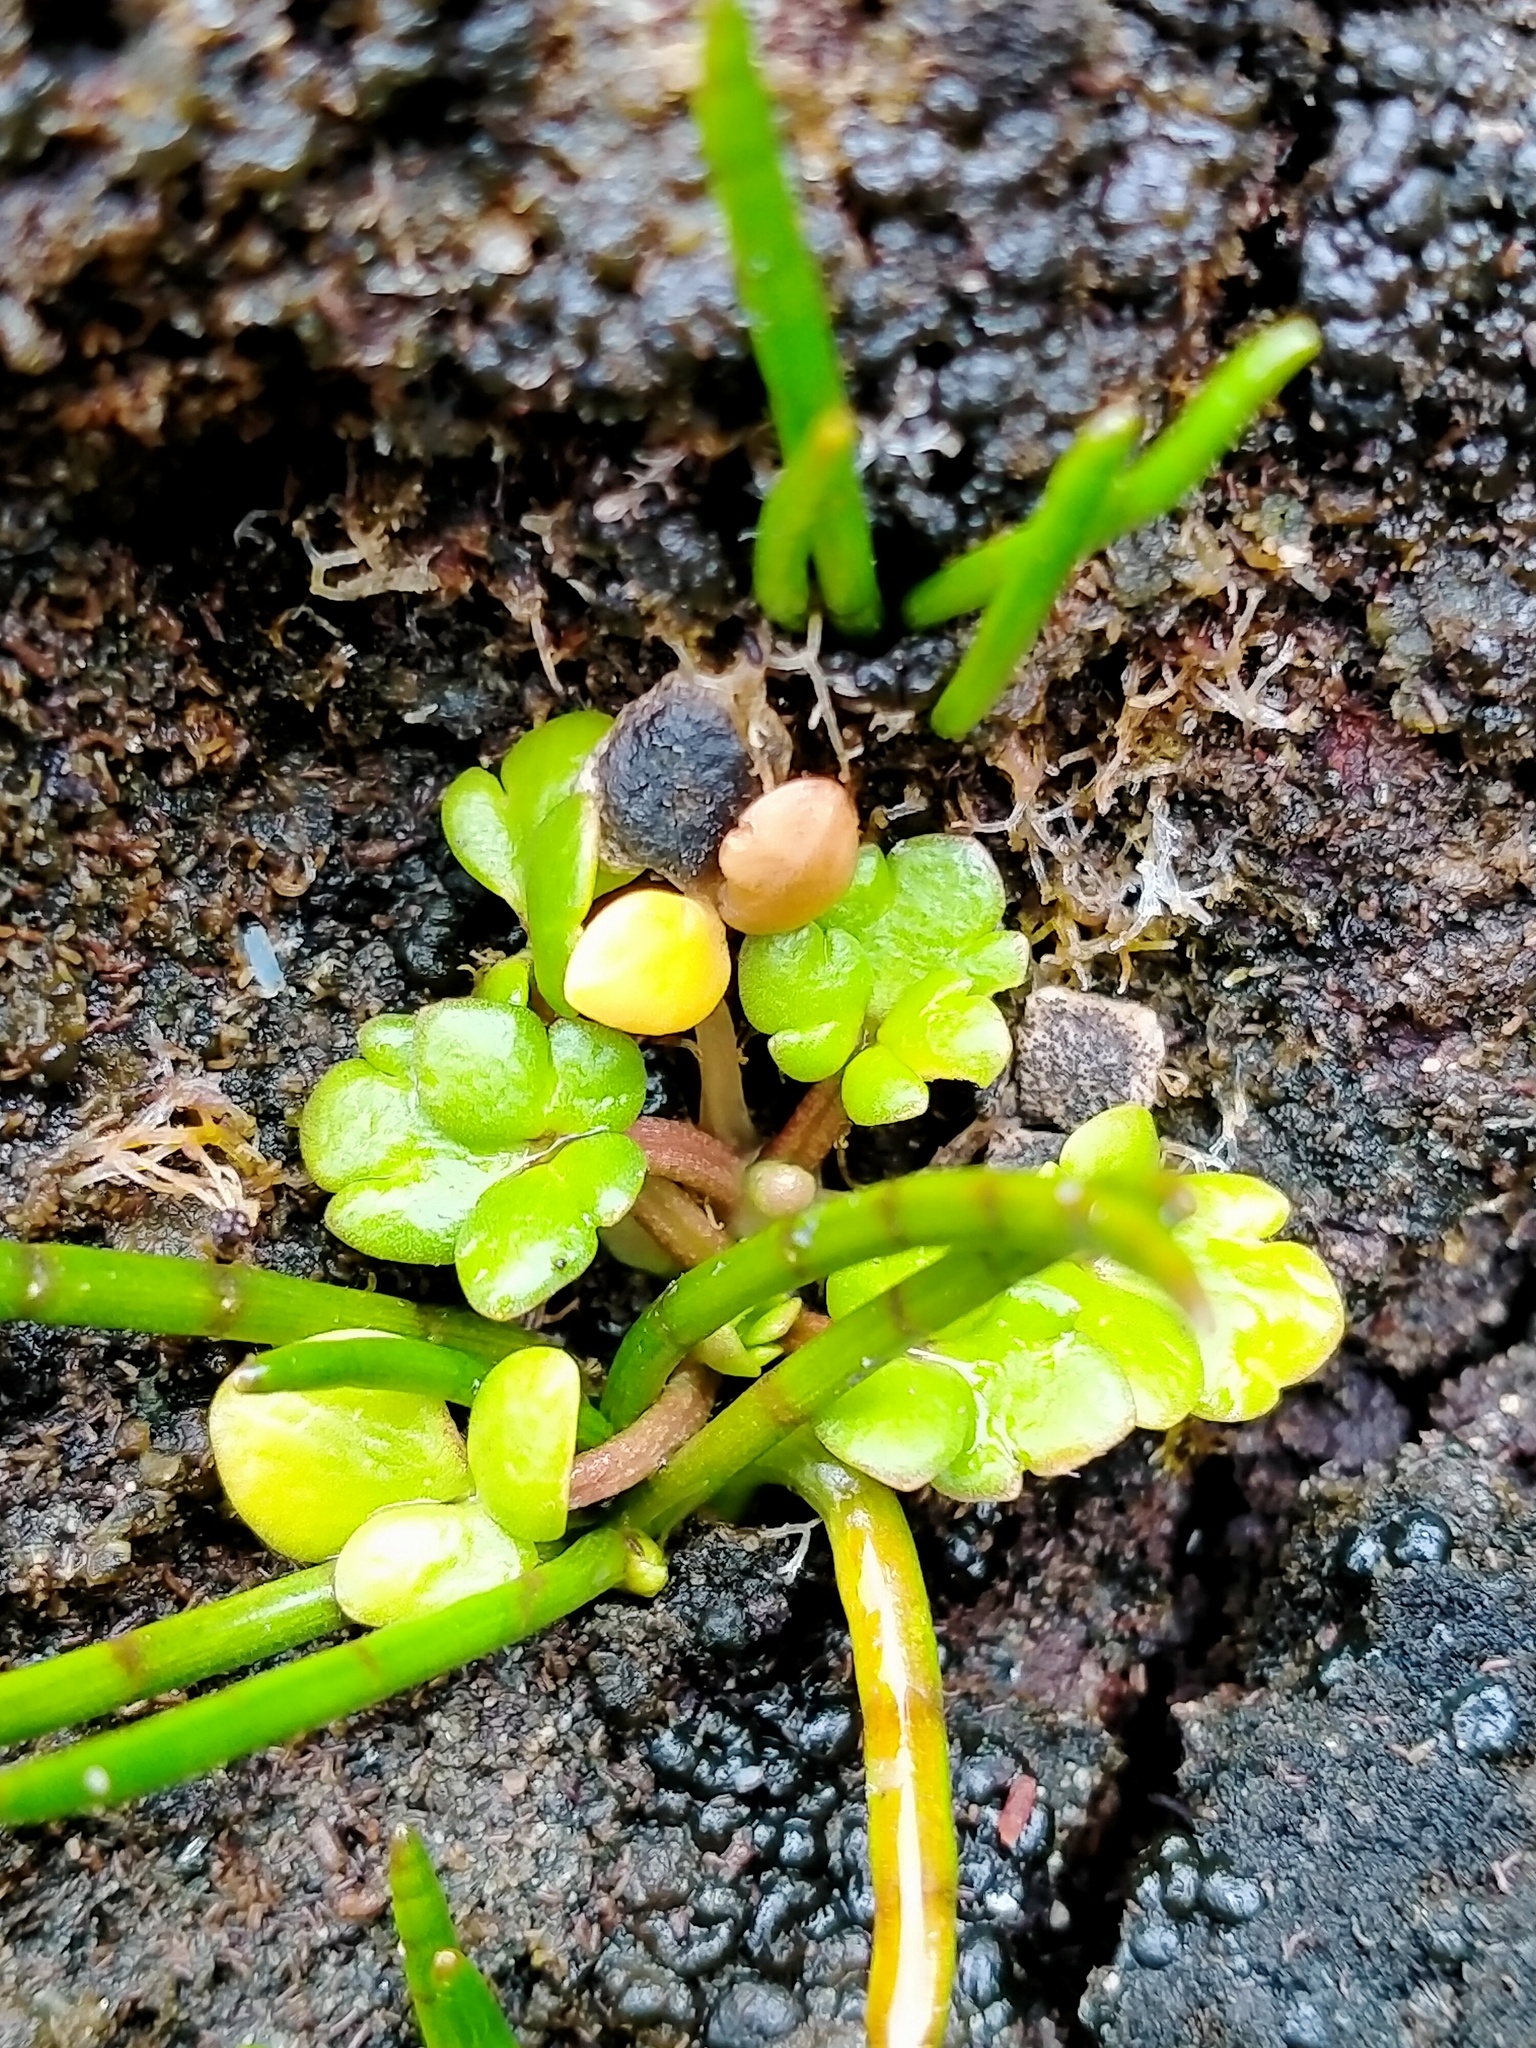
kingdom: Plantae
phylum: Tracheophyta
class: Magnoliopsida
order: Ranunculales
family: Ranunculaceae
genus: Ranunculus
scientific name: Ranunculus acaulis
